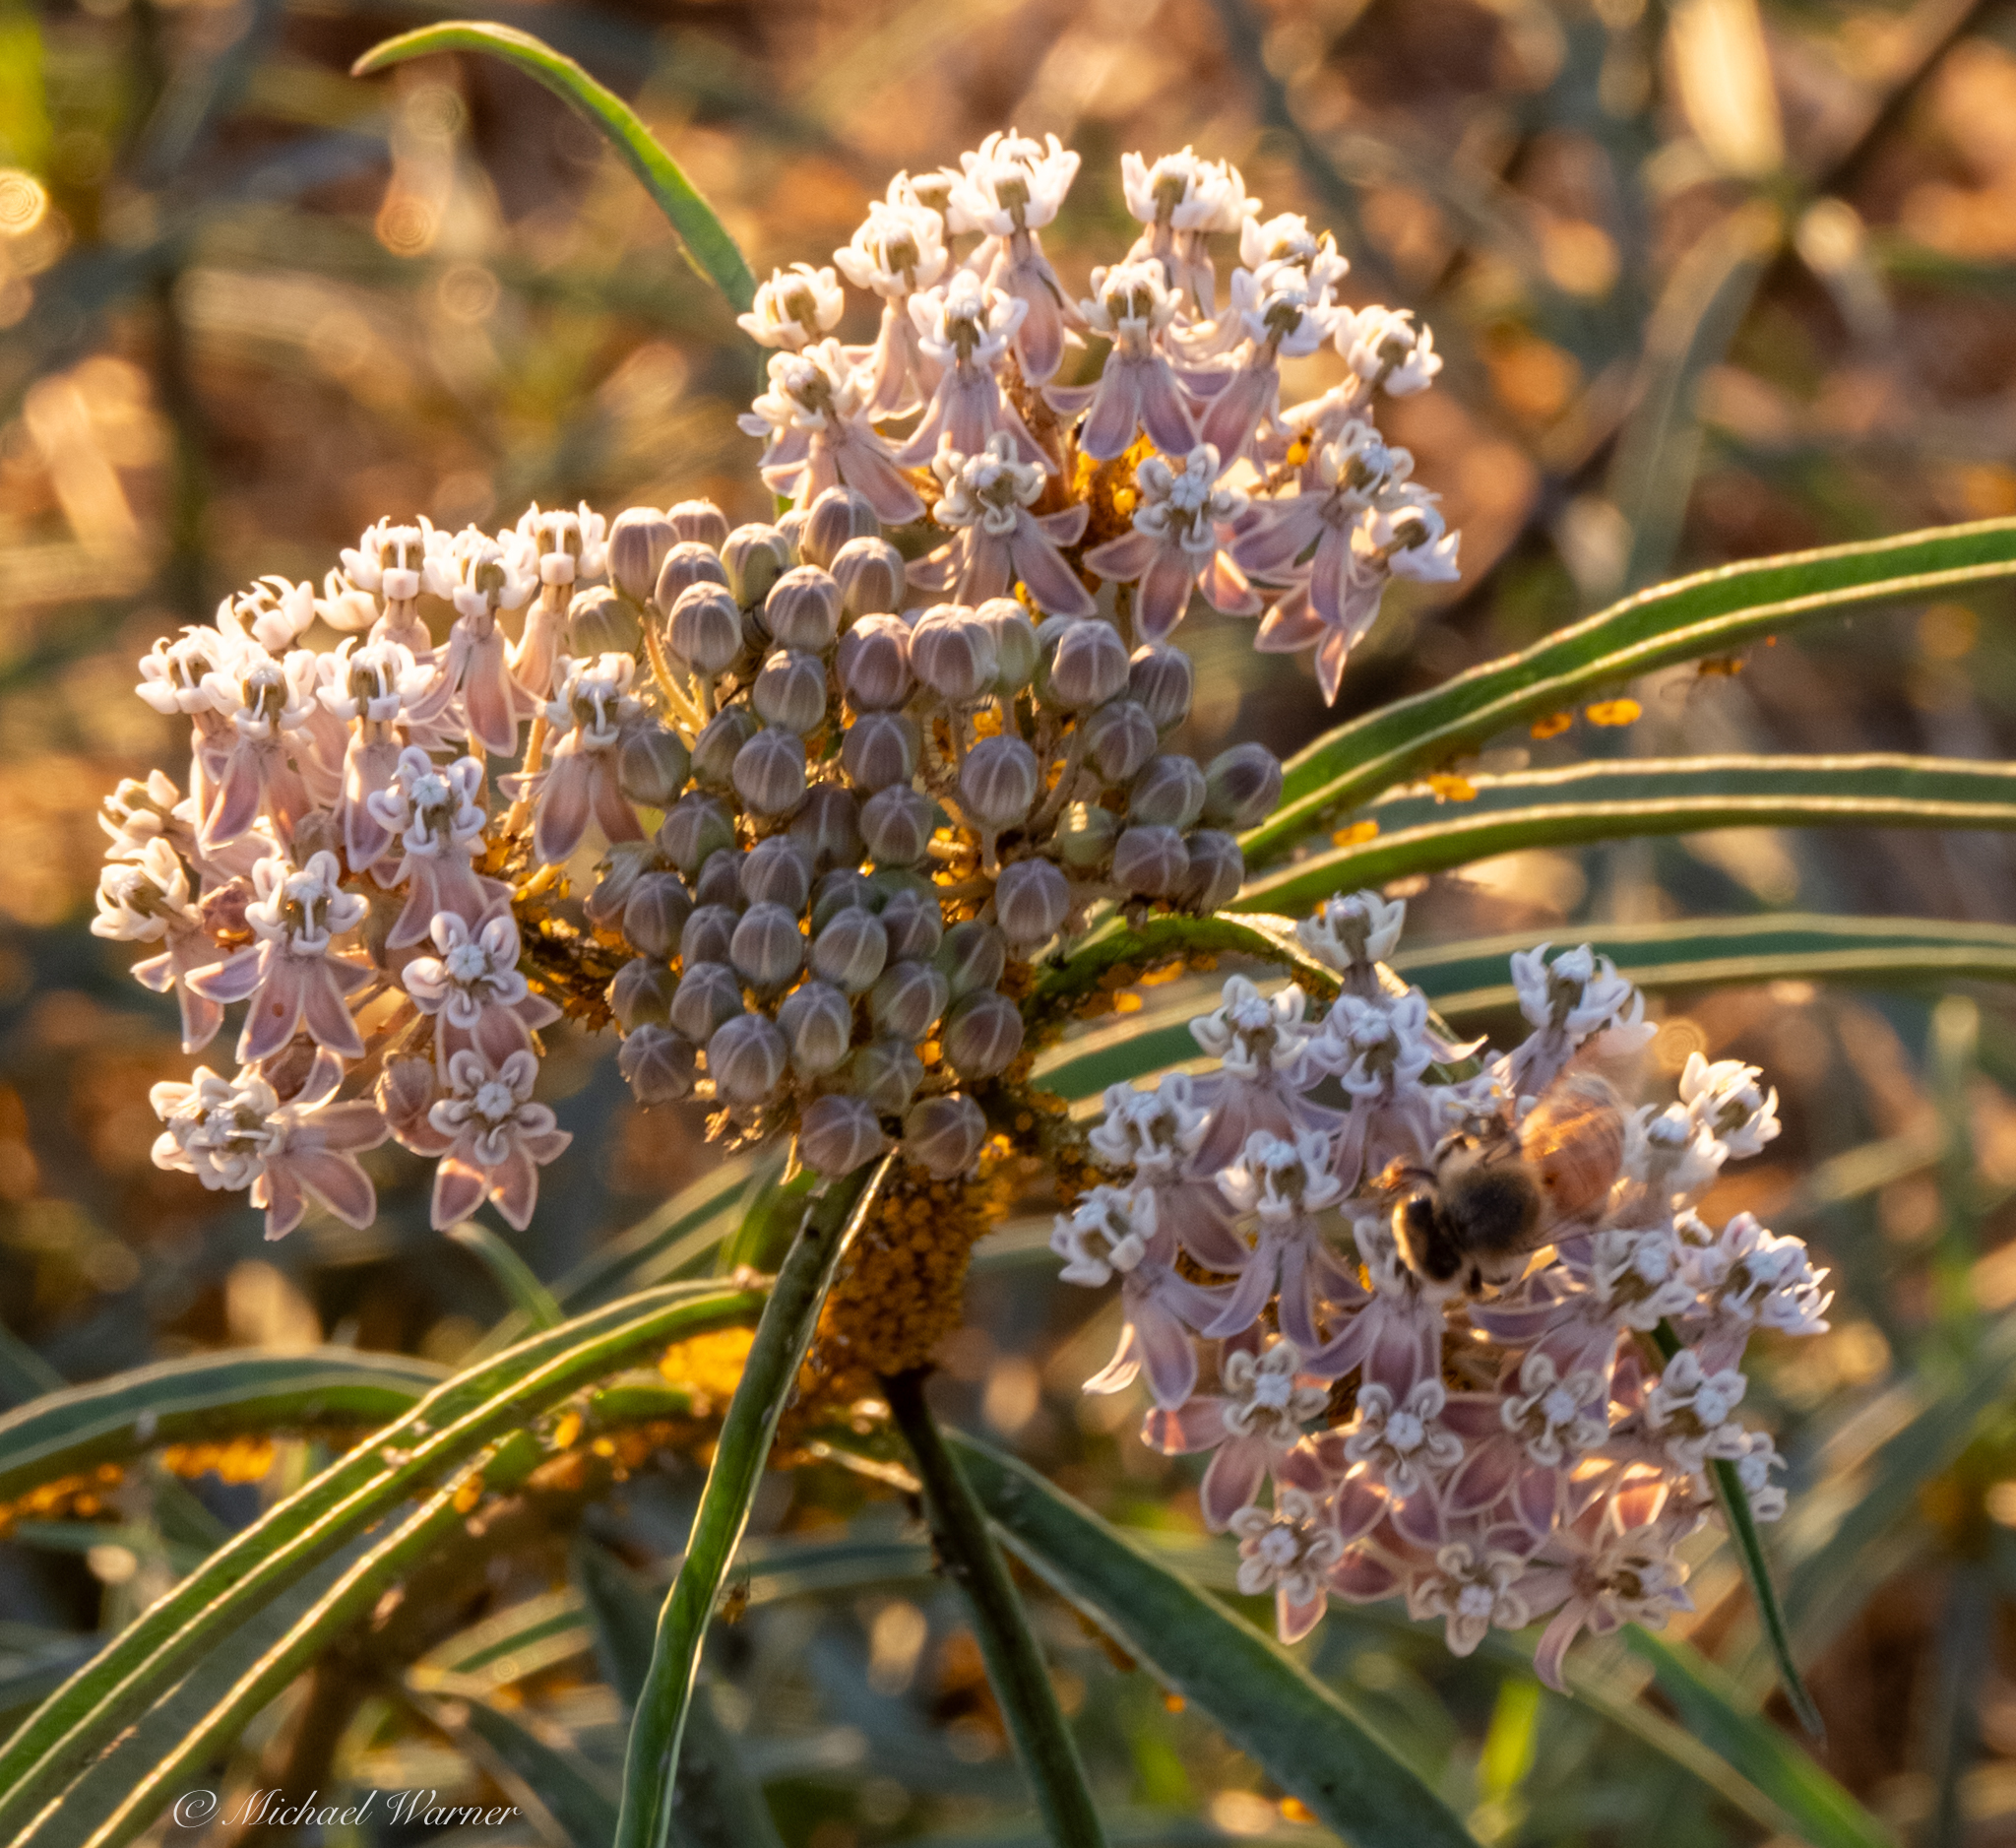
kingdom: Plantae
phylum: Tracheophyta
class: Magnoliopsida
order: Gentianales
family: Apocynaceae
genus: Asclepias
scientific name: Asclepias fascicularis
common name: Mexican milkweed
